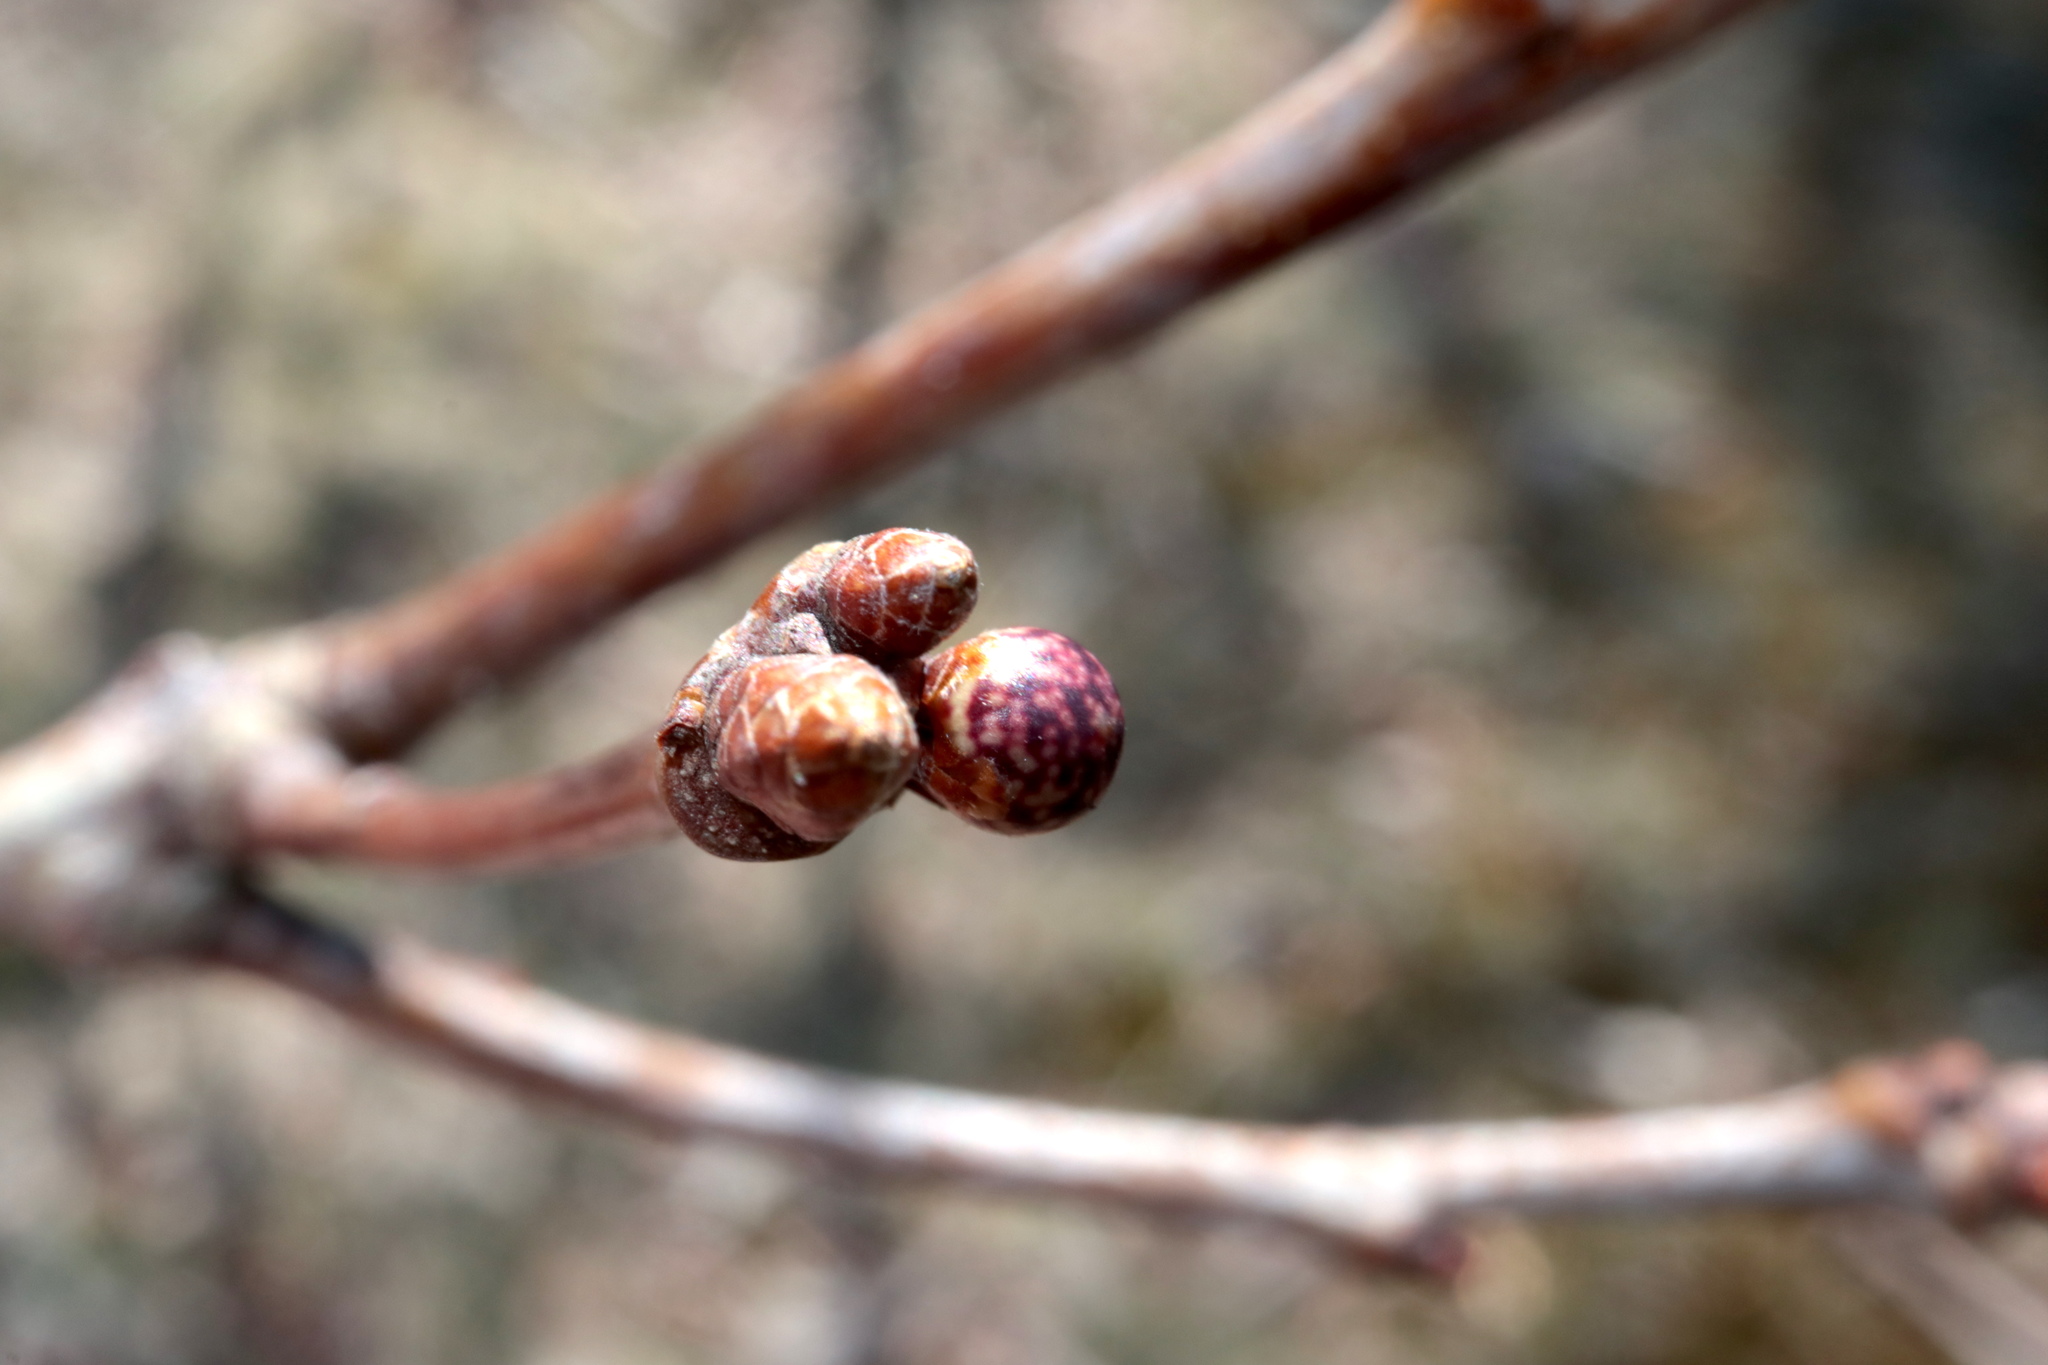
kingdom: Animalia
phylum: Arthropoda
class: Insecta
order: Hymenoptera
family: Cynipidae
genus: Andricus
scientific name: Andricus
